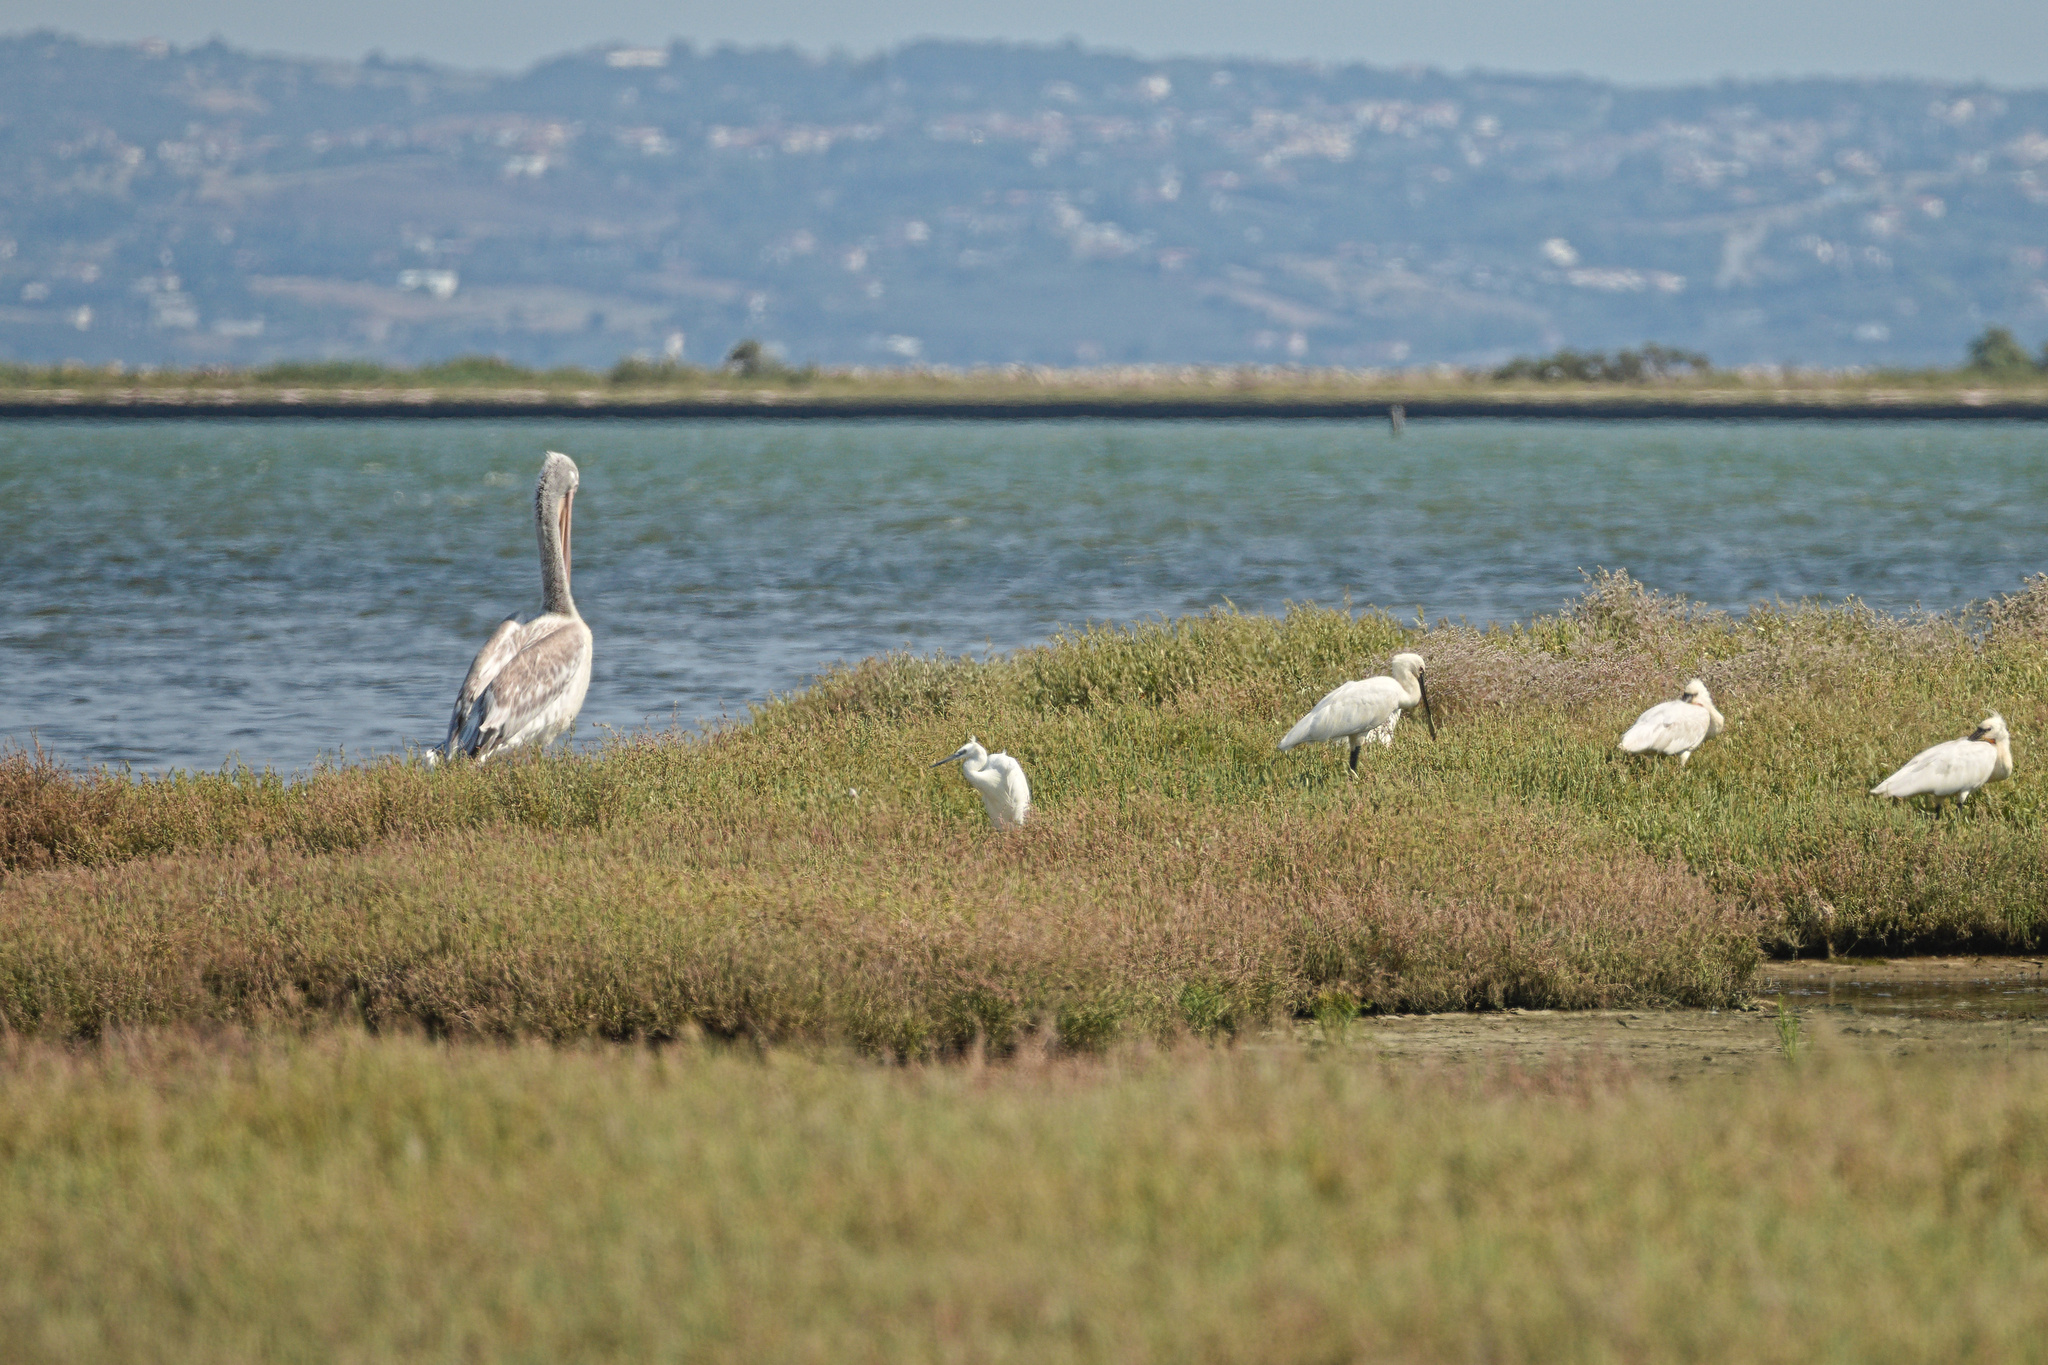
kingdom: Animalia
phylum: Chordata
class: Aves
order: Pelecaniformes
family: Ardeidae
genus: Egretta
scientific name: Egretta garzetta
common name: Little egret
